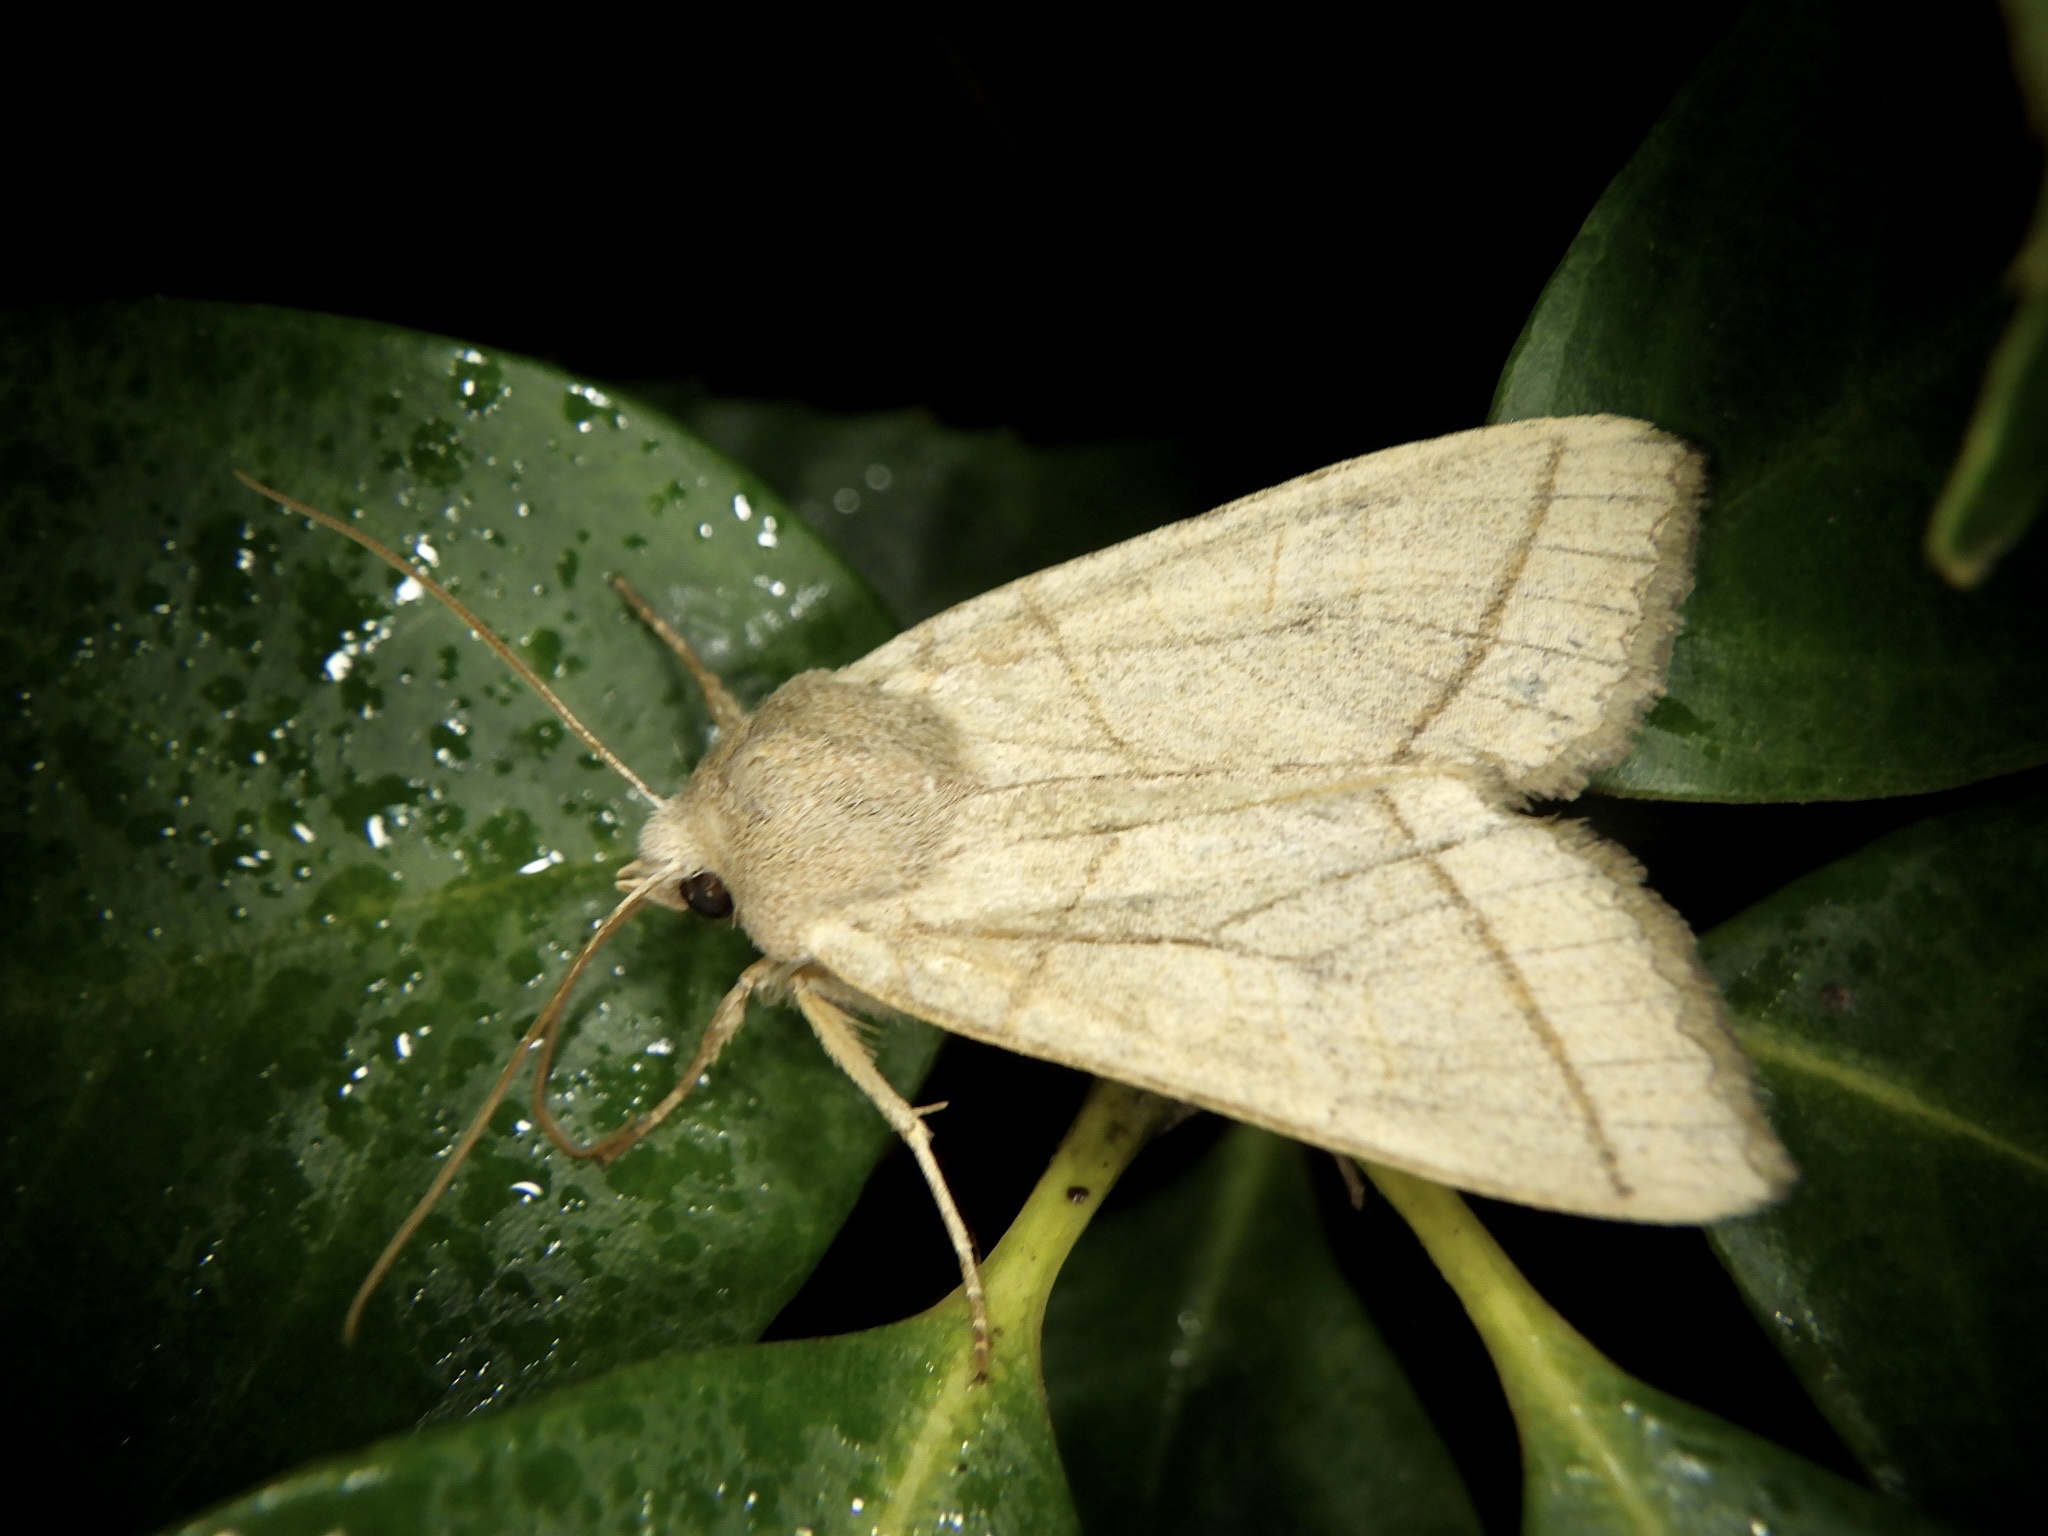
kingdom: Animalia
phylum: Arthropoda
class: Insecta
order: Lepidoptera
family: Noctuidae
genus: Telorta
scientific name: Telorta divergens
